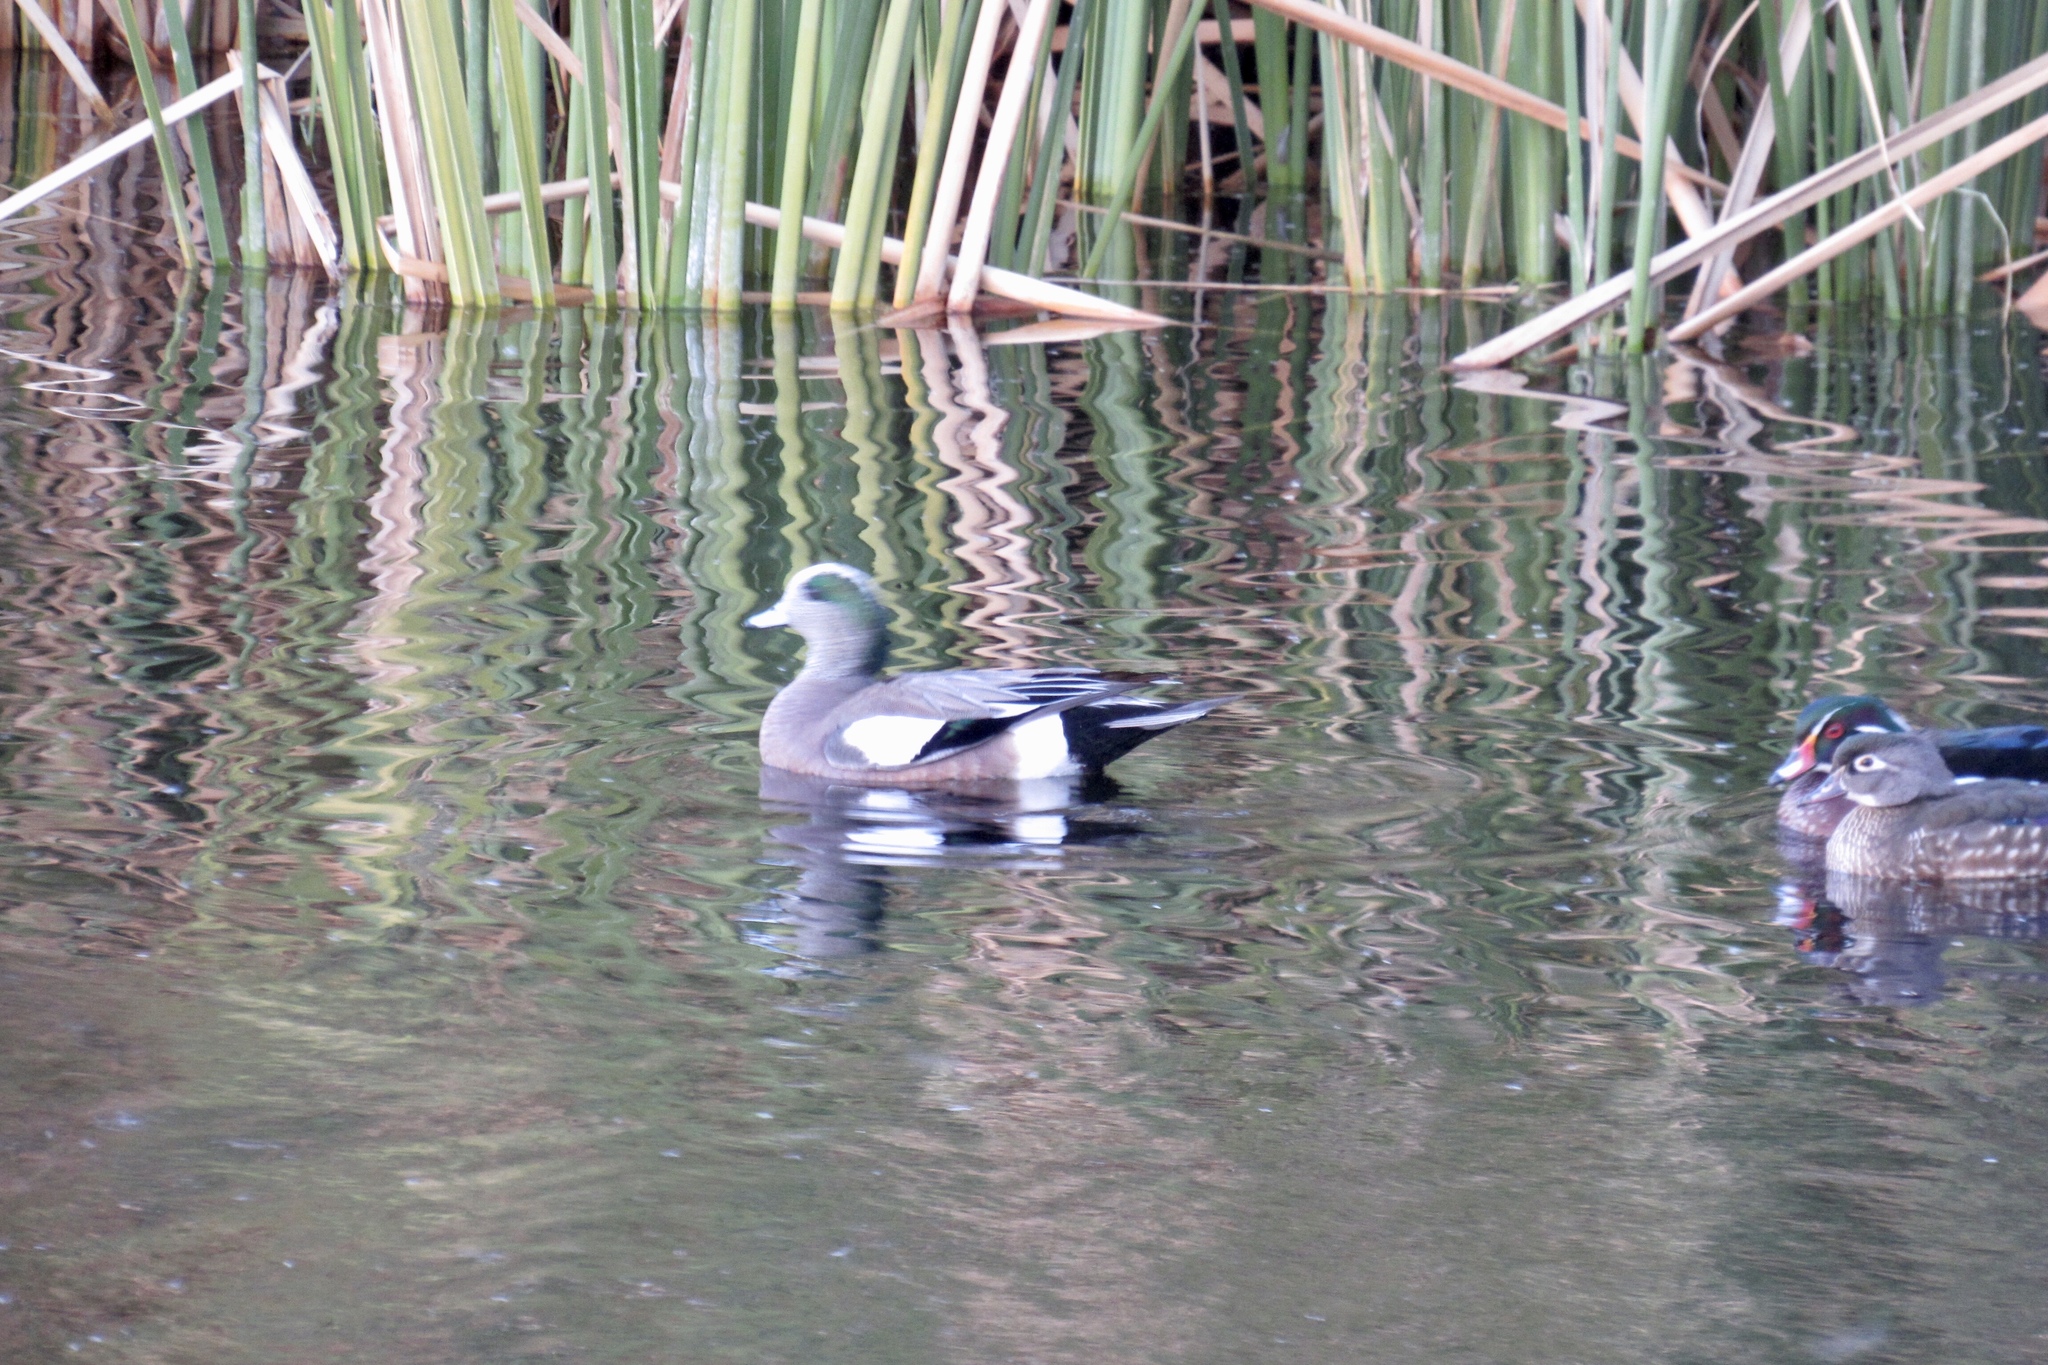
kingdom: Animalia
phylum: Chordata
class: Aves
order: Anseriformes
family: Anatidae
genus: Mareca
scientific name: Mareca americana
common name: American wigeon
